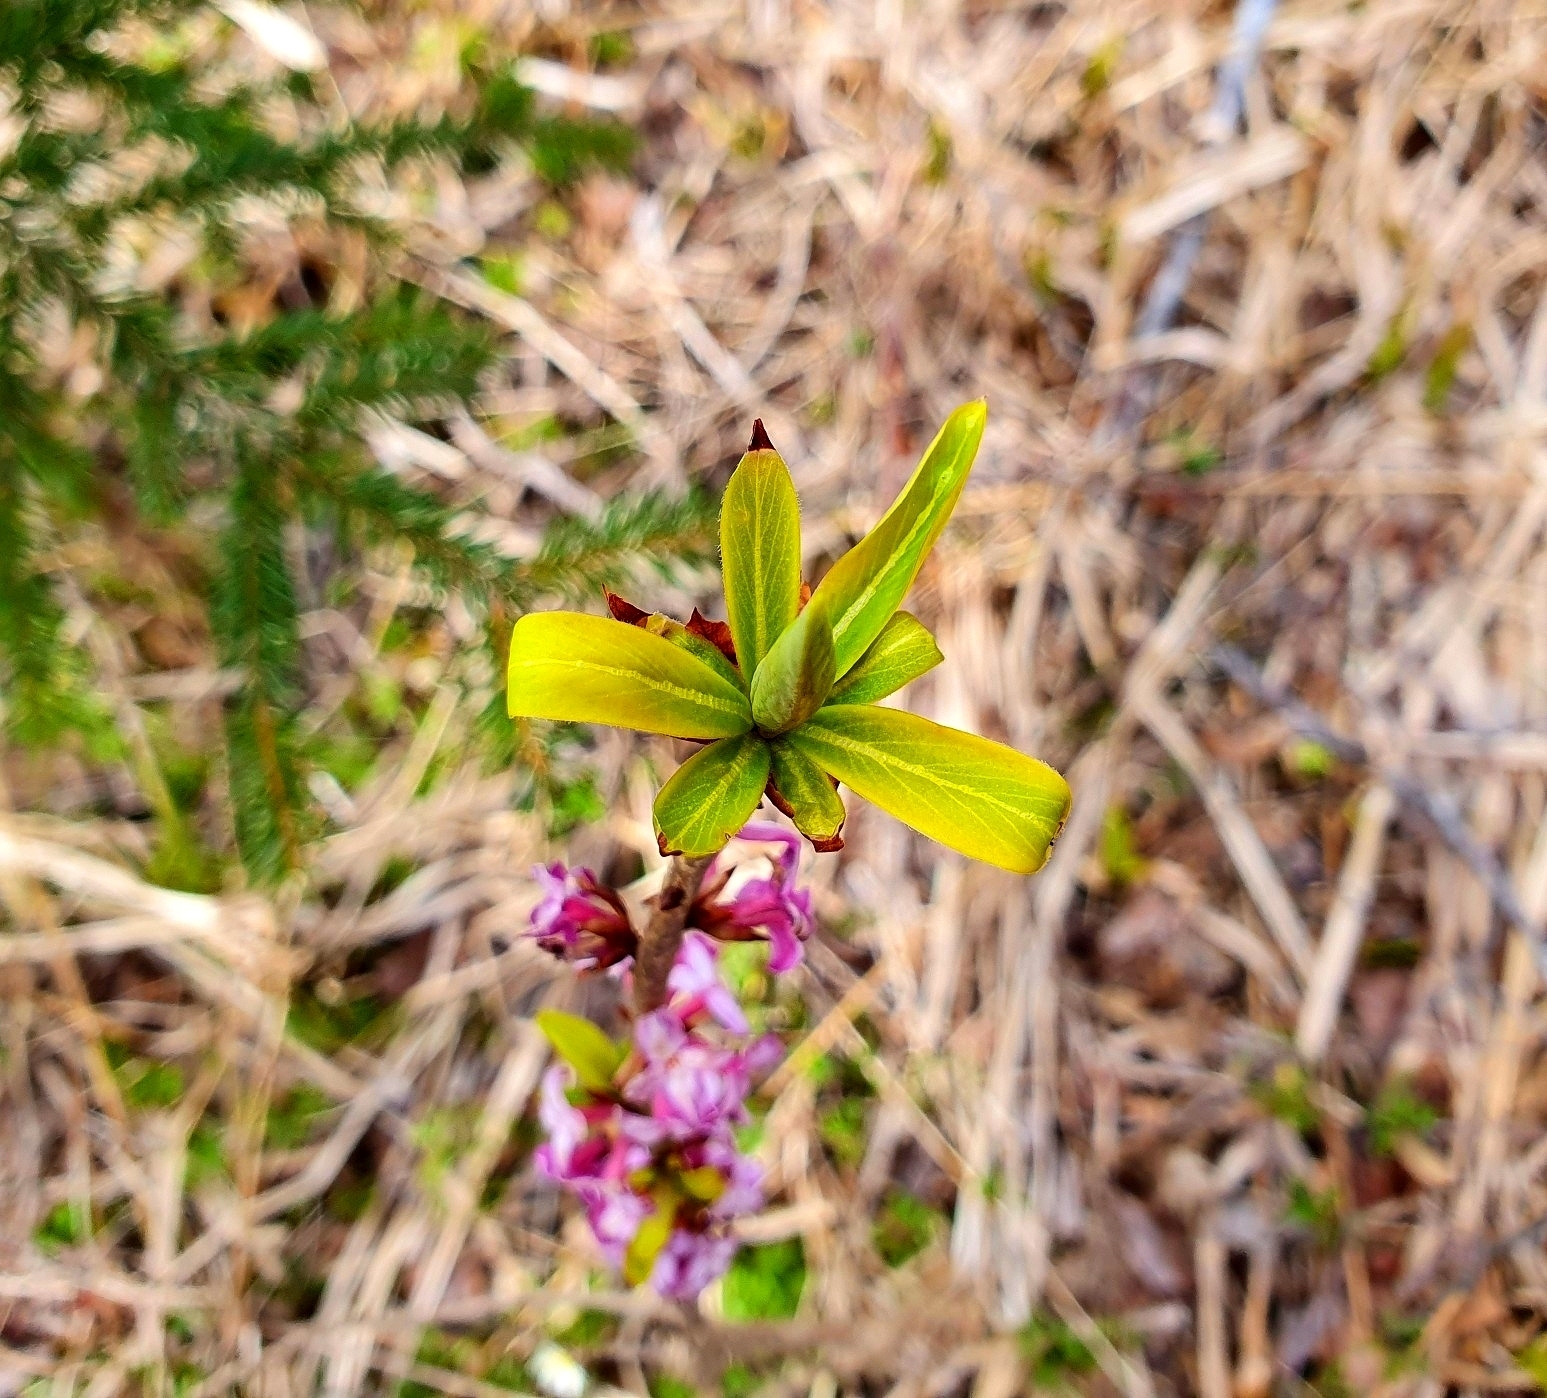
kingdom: Plantae
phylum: Tracheophyta
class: Magnoliopsida
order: Malvales
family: Thymelaeaceae
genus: Daphne
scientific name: Daphne mezereum
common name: Mezereon
